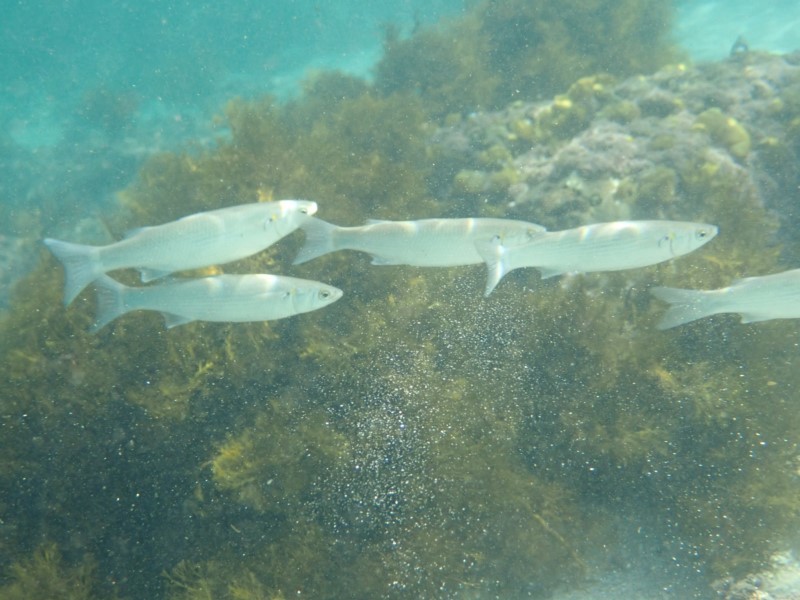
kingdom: Animalia
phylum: Chordata
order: Mugiliformes
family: Mugilidae
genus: Myxus
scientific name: Myxus elongatus
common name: Sand grey mullet
